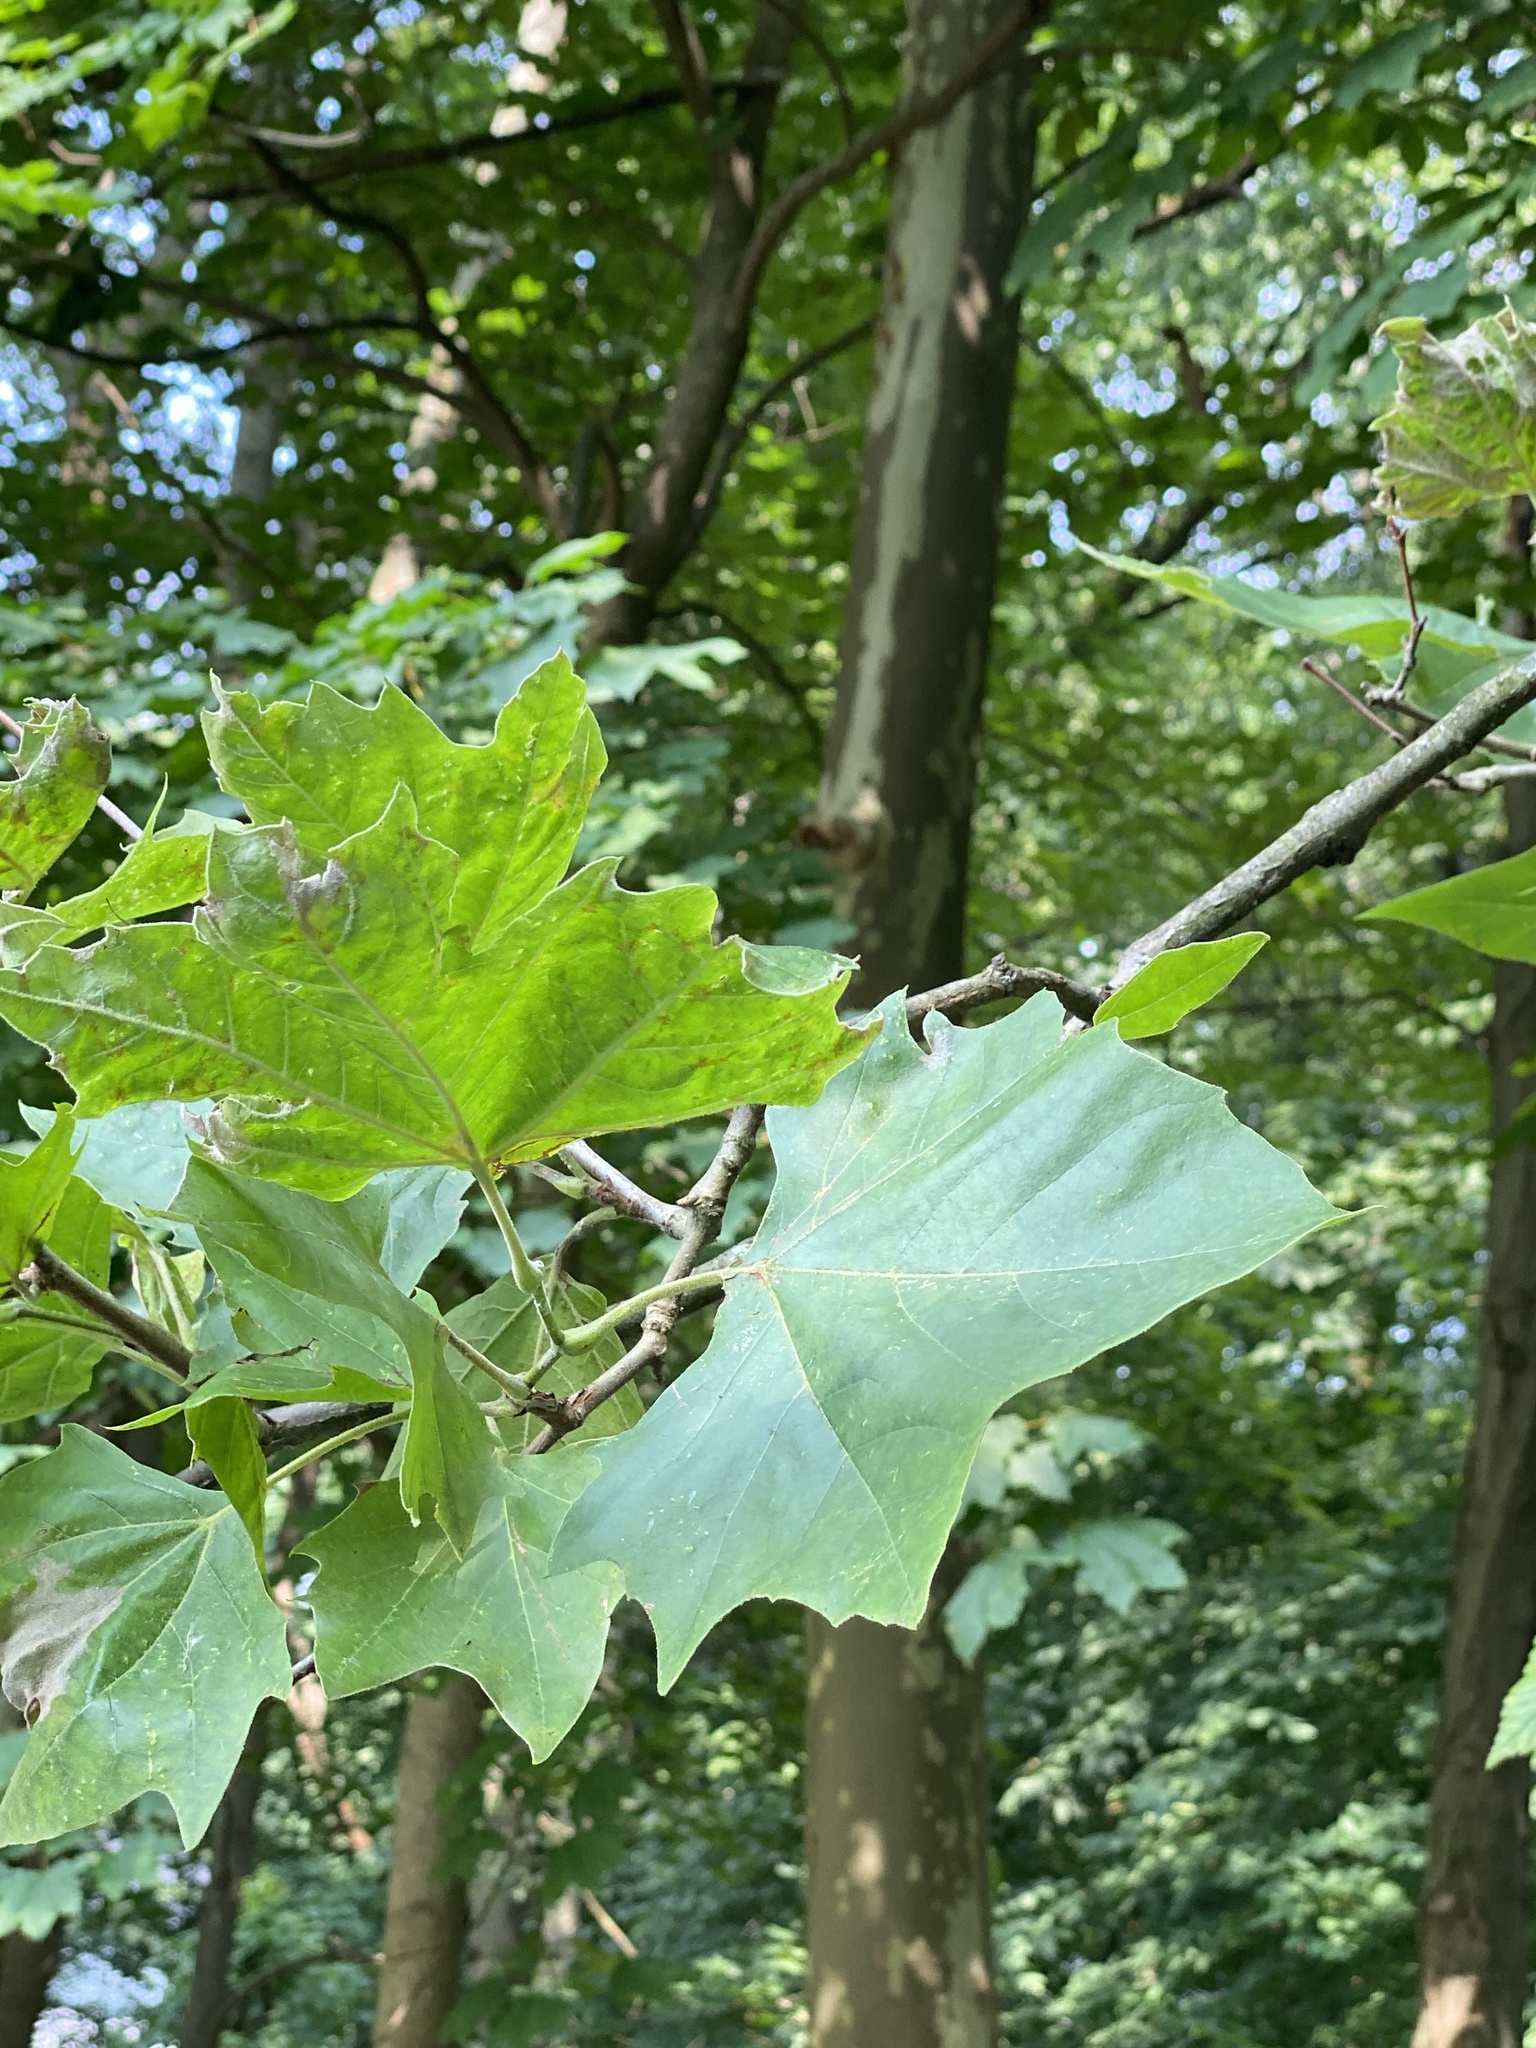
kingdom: Plantae
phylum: Tracheophyta
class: Magnoliopsida
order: Proteales
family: Platanaceae
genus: Platanus
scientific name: Platanus occidentalis
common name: American sycamore
